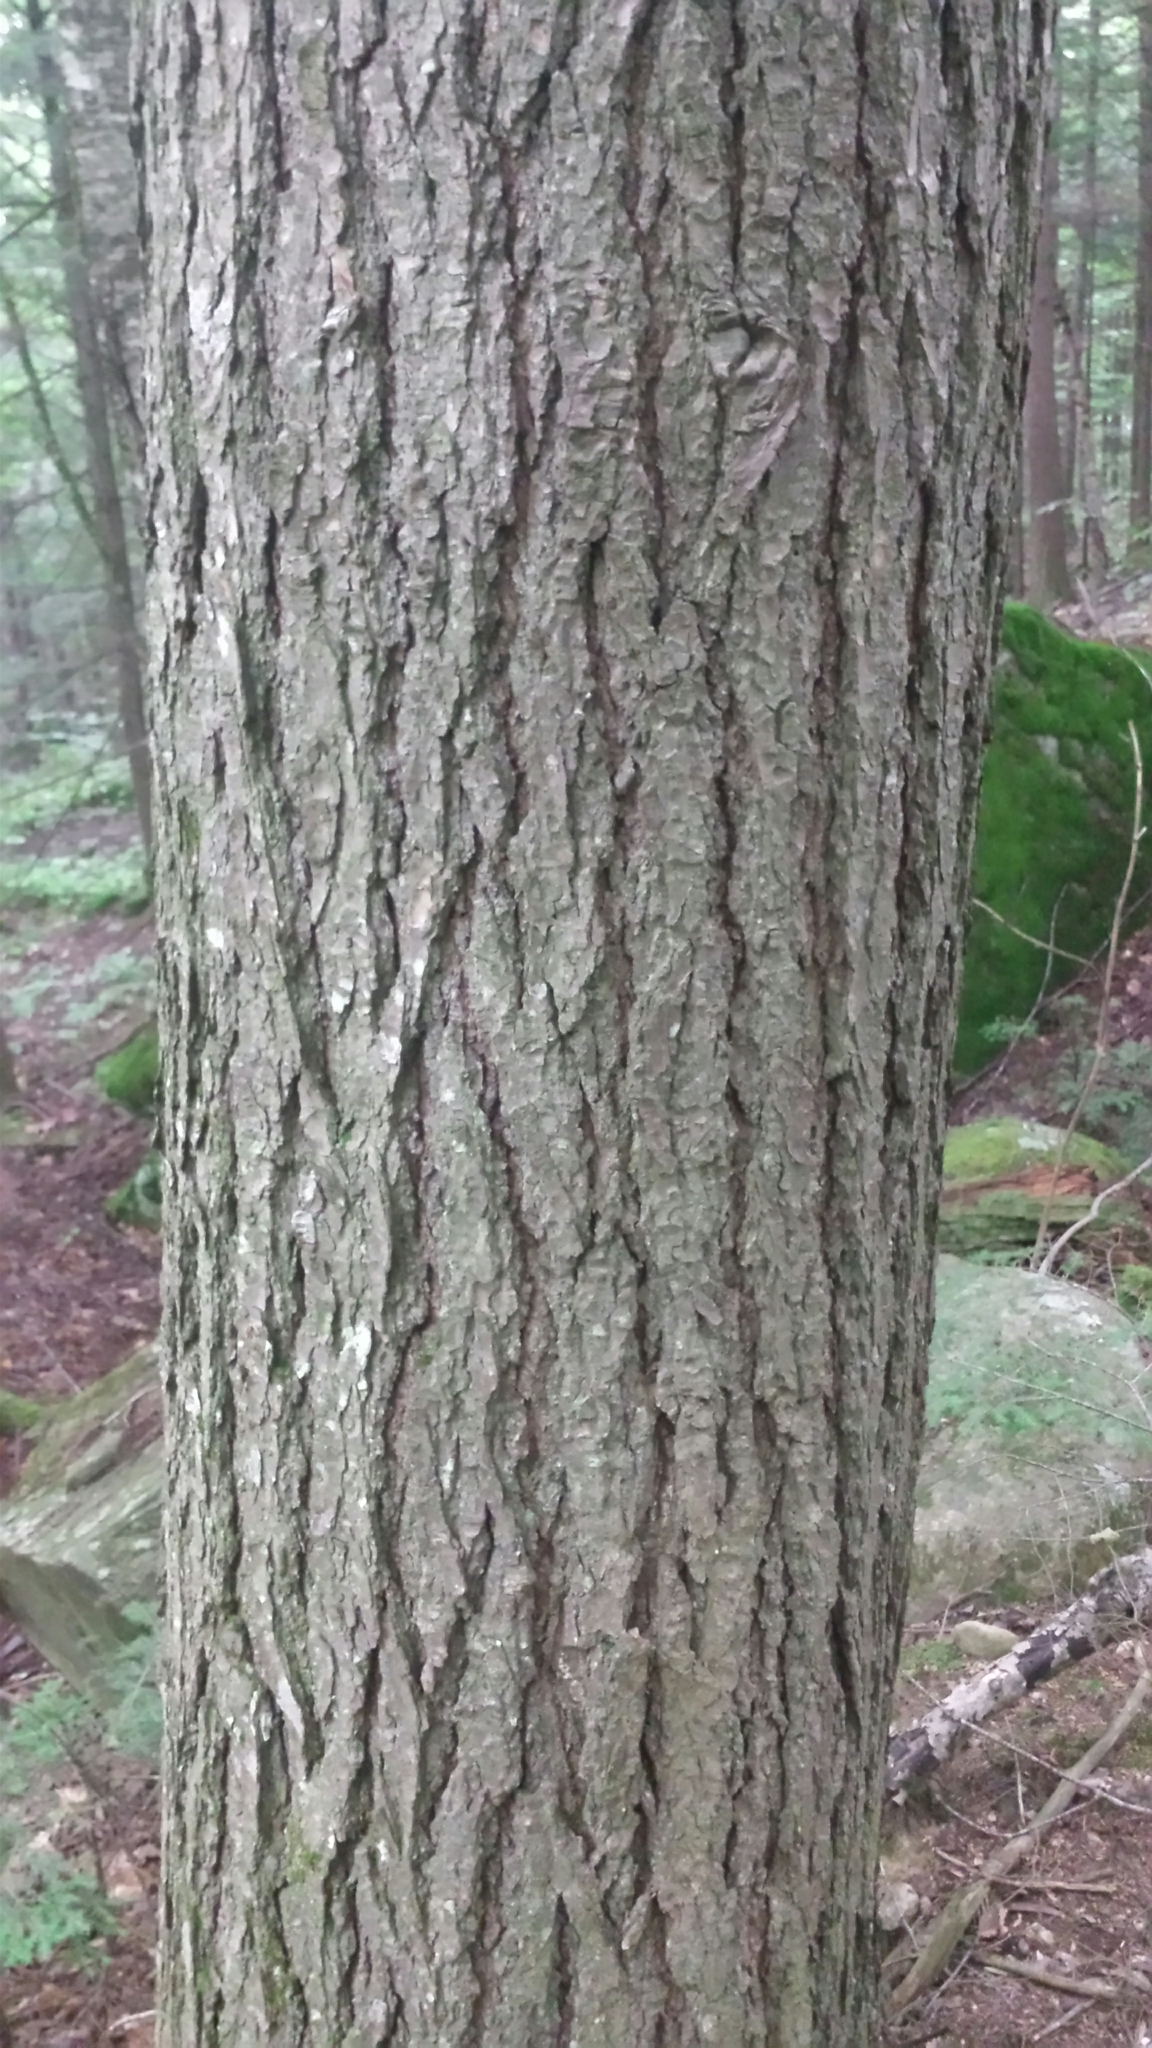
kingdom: Plantae
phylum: Tracheophyta
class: Pinopsida
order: Pinales
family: Pinaceae
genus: Tsuga
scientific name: Tsuga canadensis
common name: Eastern hemlock
